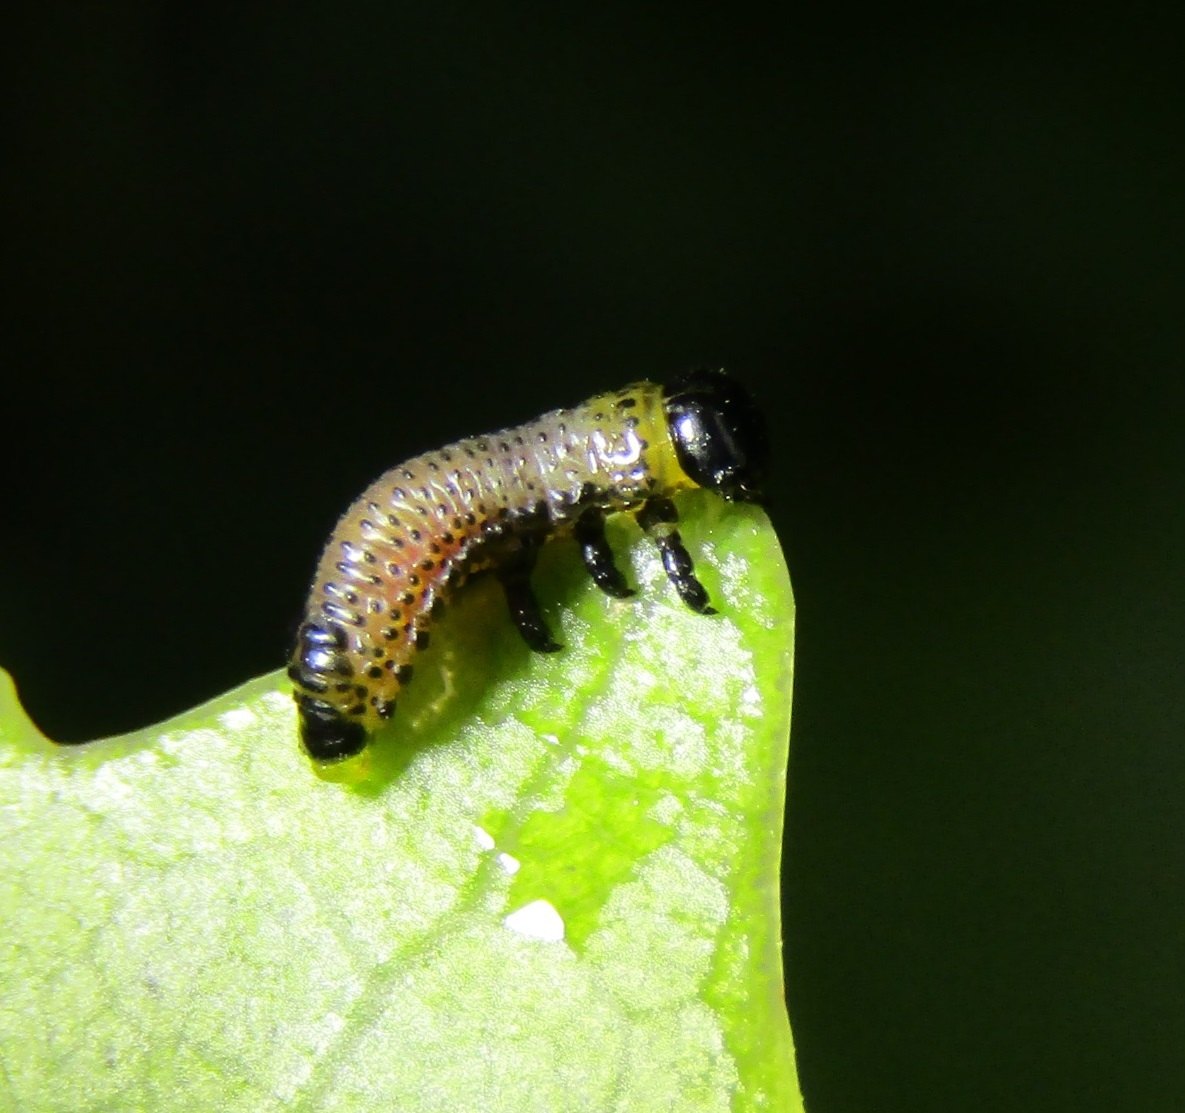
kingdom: Animalia
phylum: Arthropoda
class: Insecta
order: Coleoptera
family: Chrysomelidae
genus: Paropsis
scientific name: Paropsis charybdis
